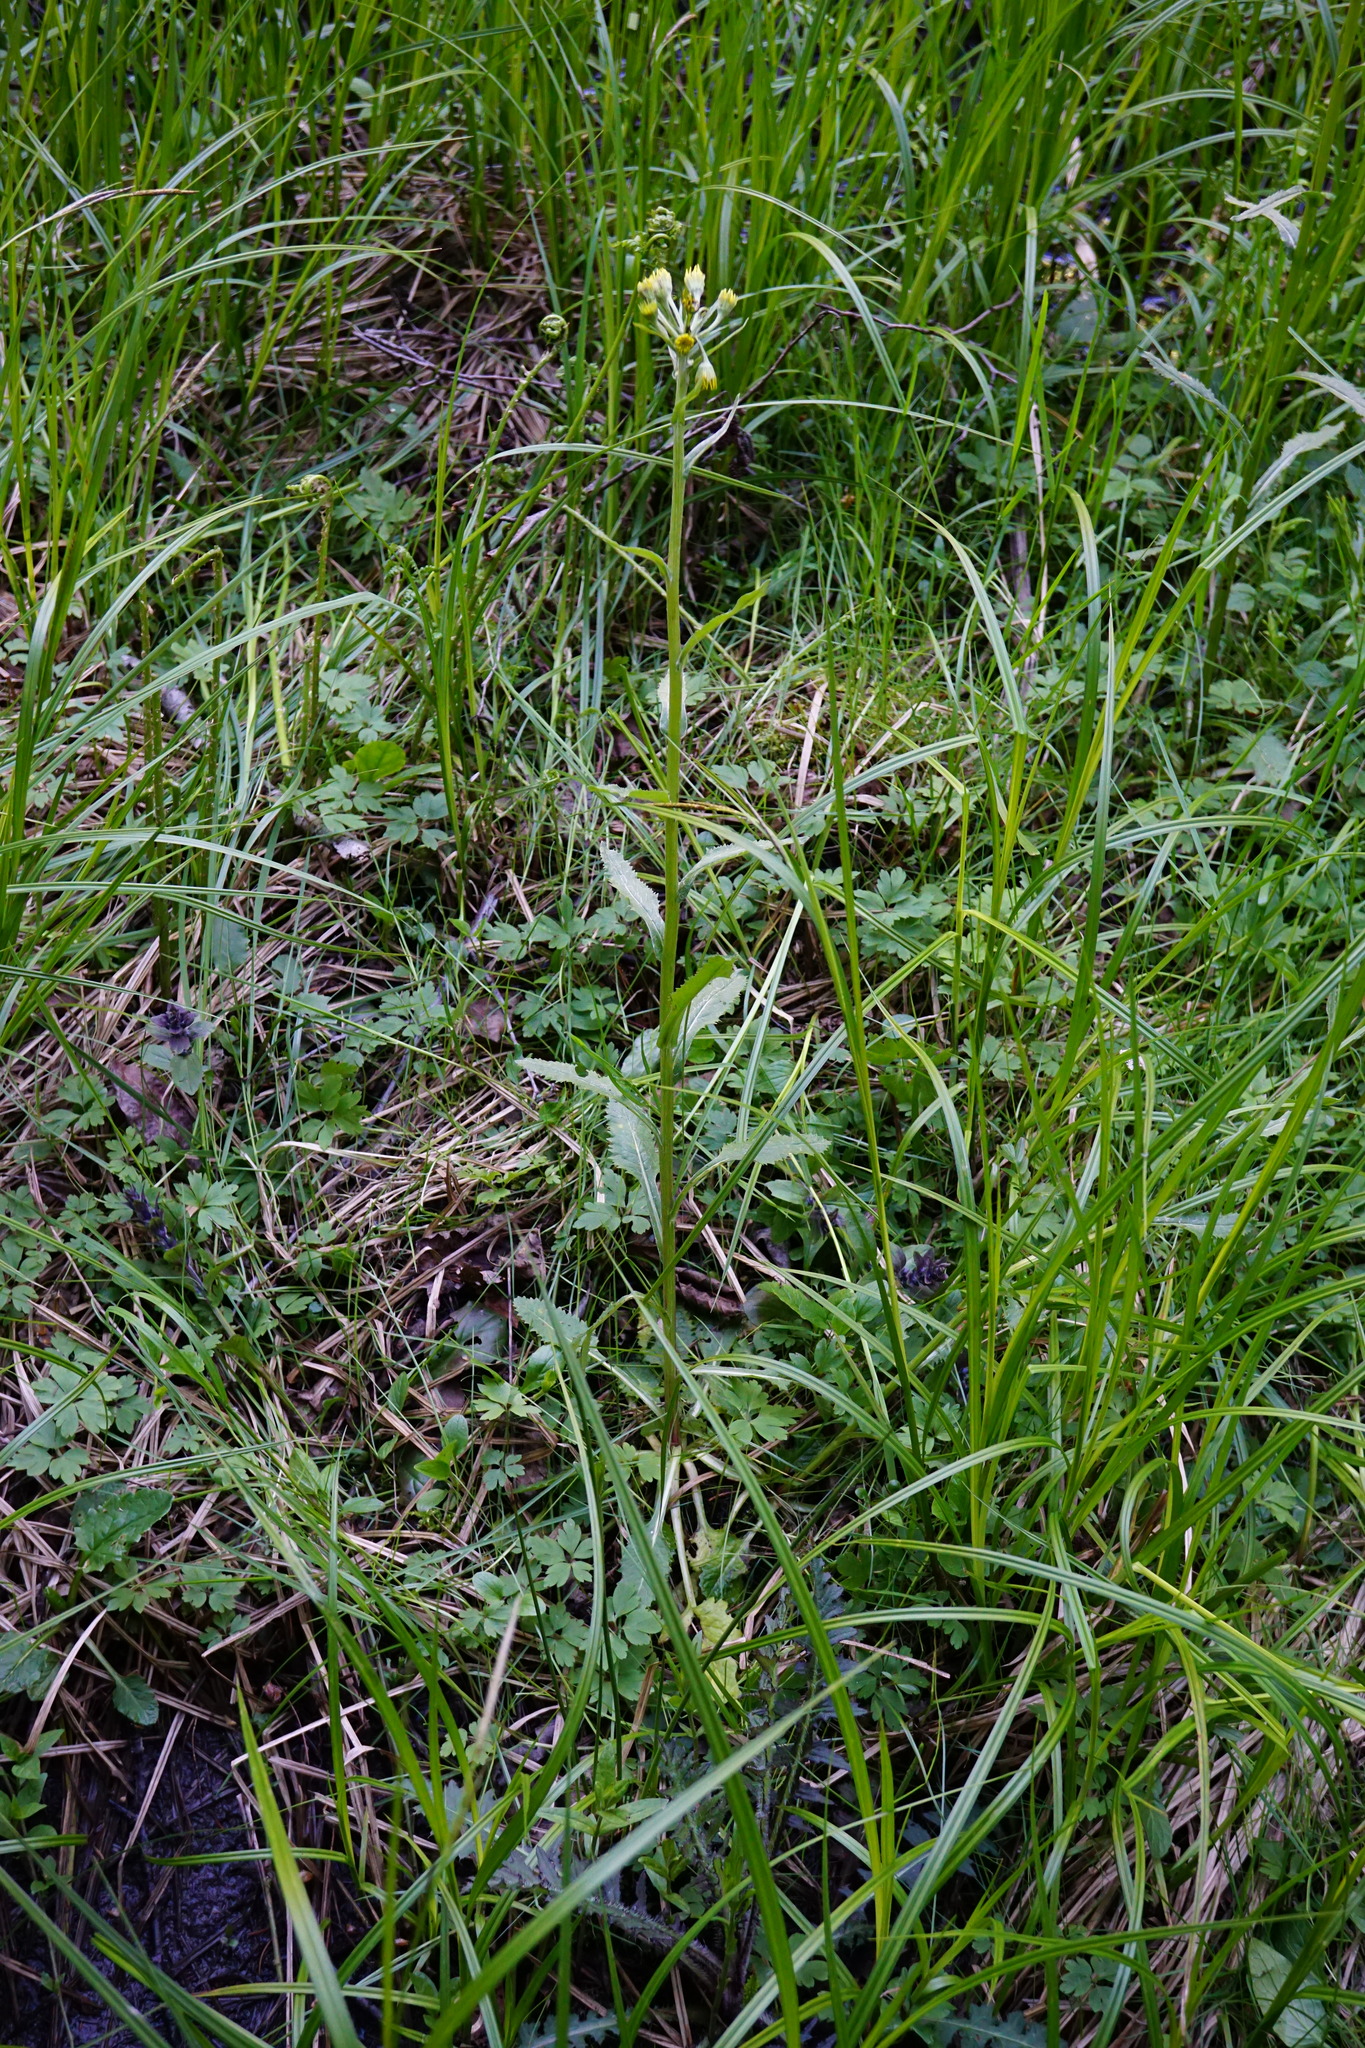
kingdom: Plantae
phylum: Tracheophyta
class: Magnoliopsida
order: Asterales
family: Asteraceae
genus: Tephroseris
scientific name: Tephroseris crispa
